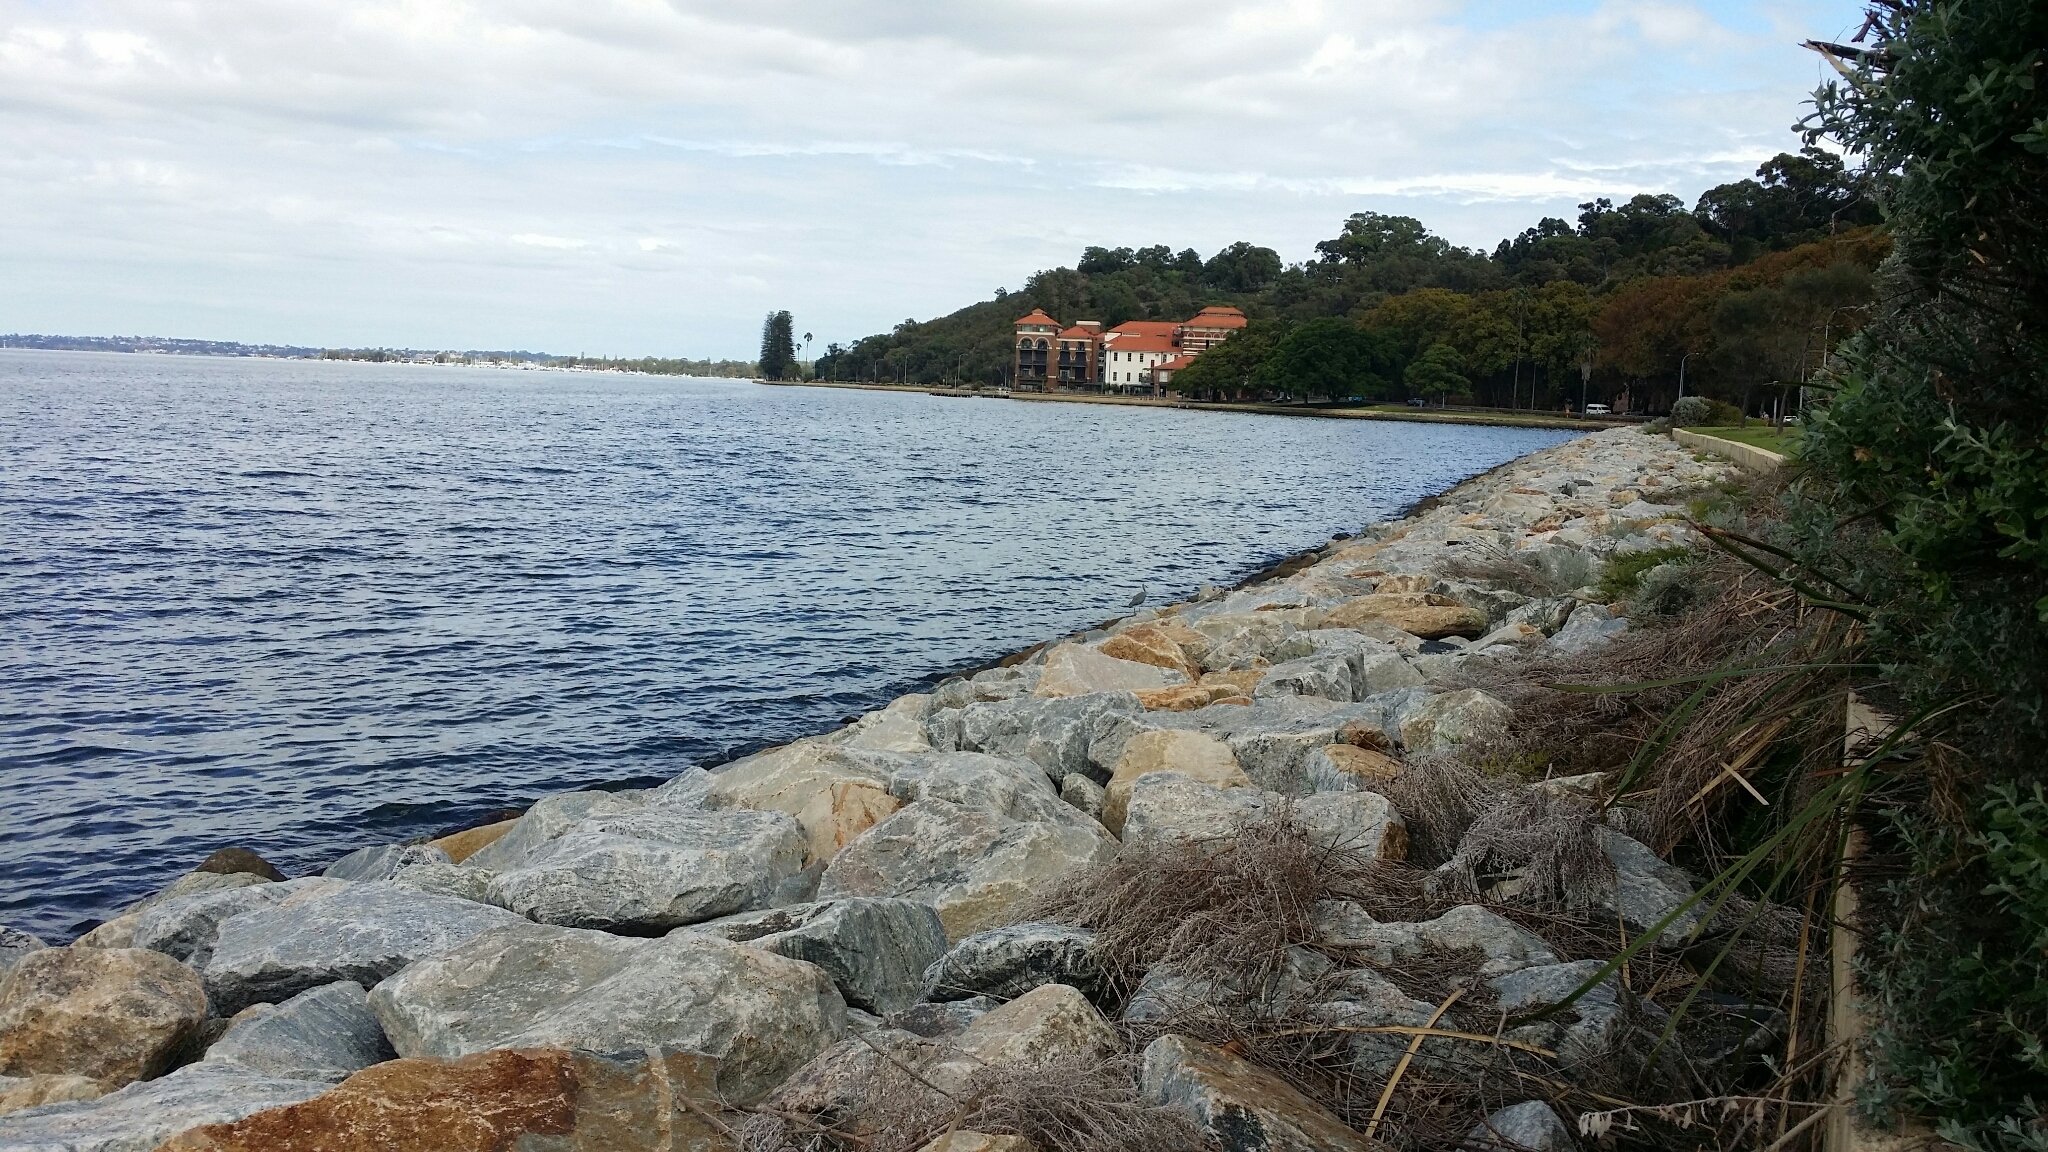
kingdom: Animalia
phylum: Chordata
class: Aves
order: Pelecaniformes
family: Ardeidae
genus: Egretta
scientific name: Egretta novaehollandiae
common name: White-faced heron
